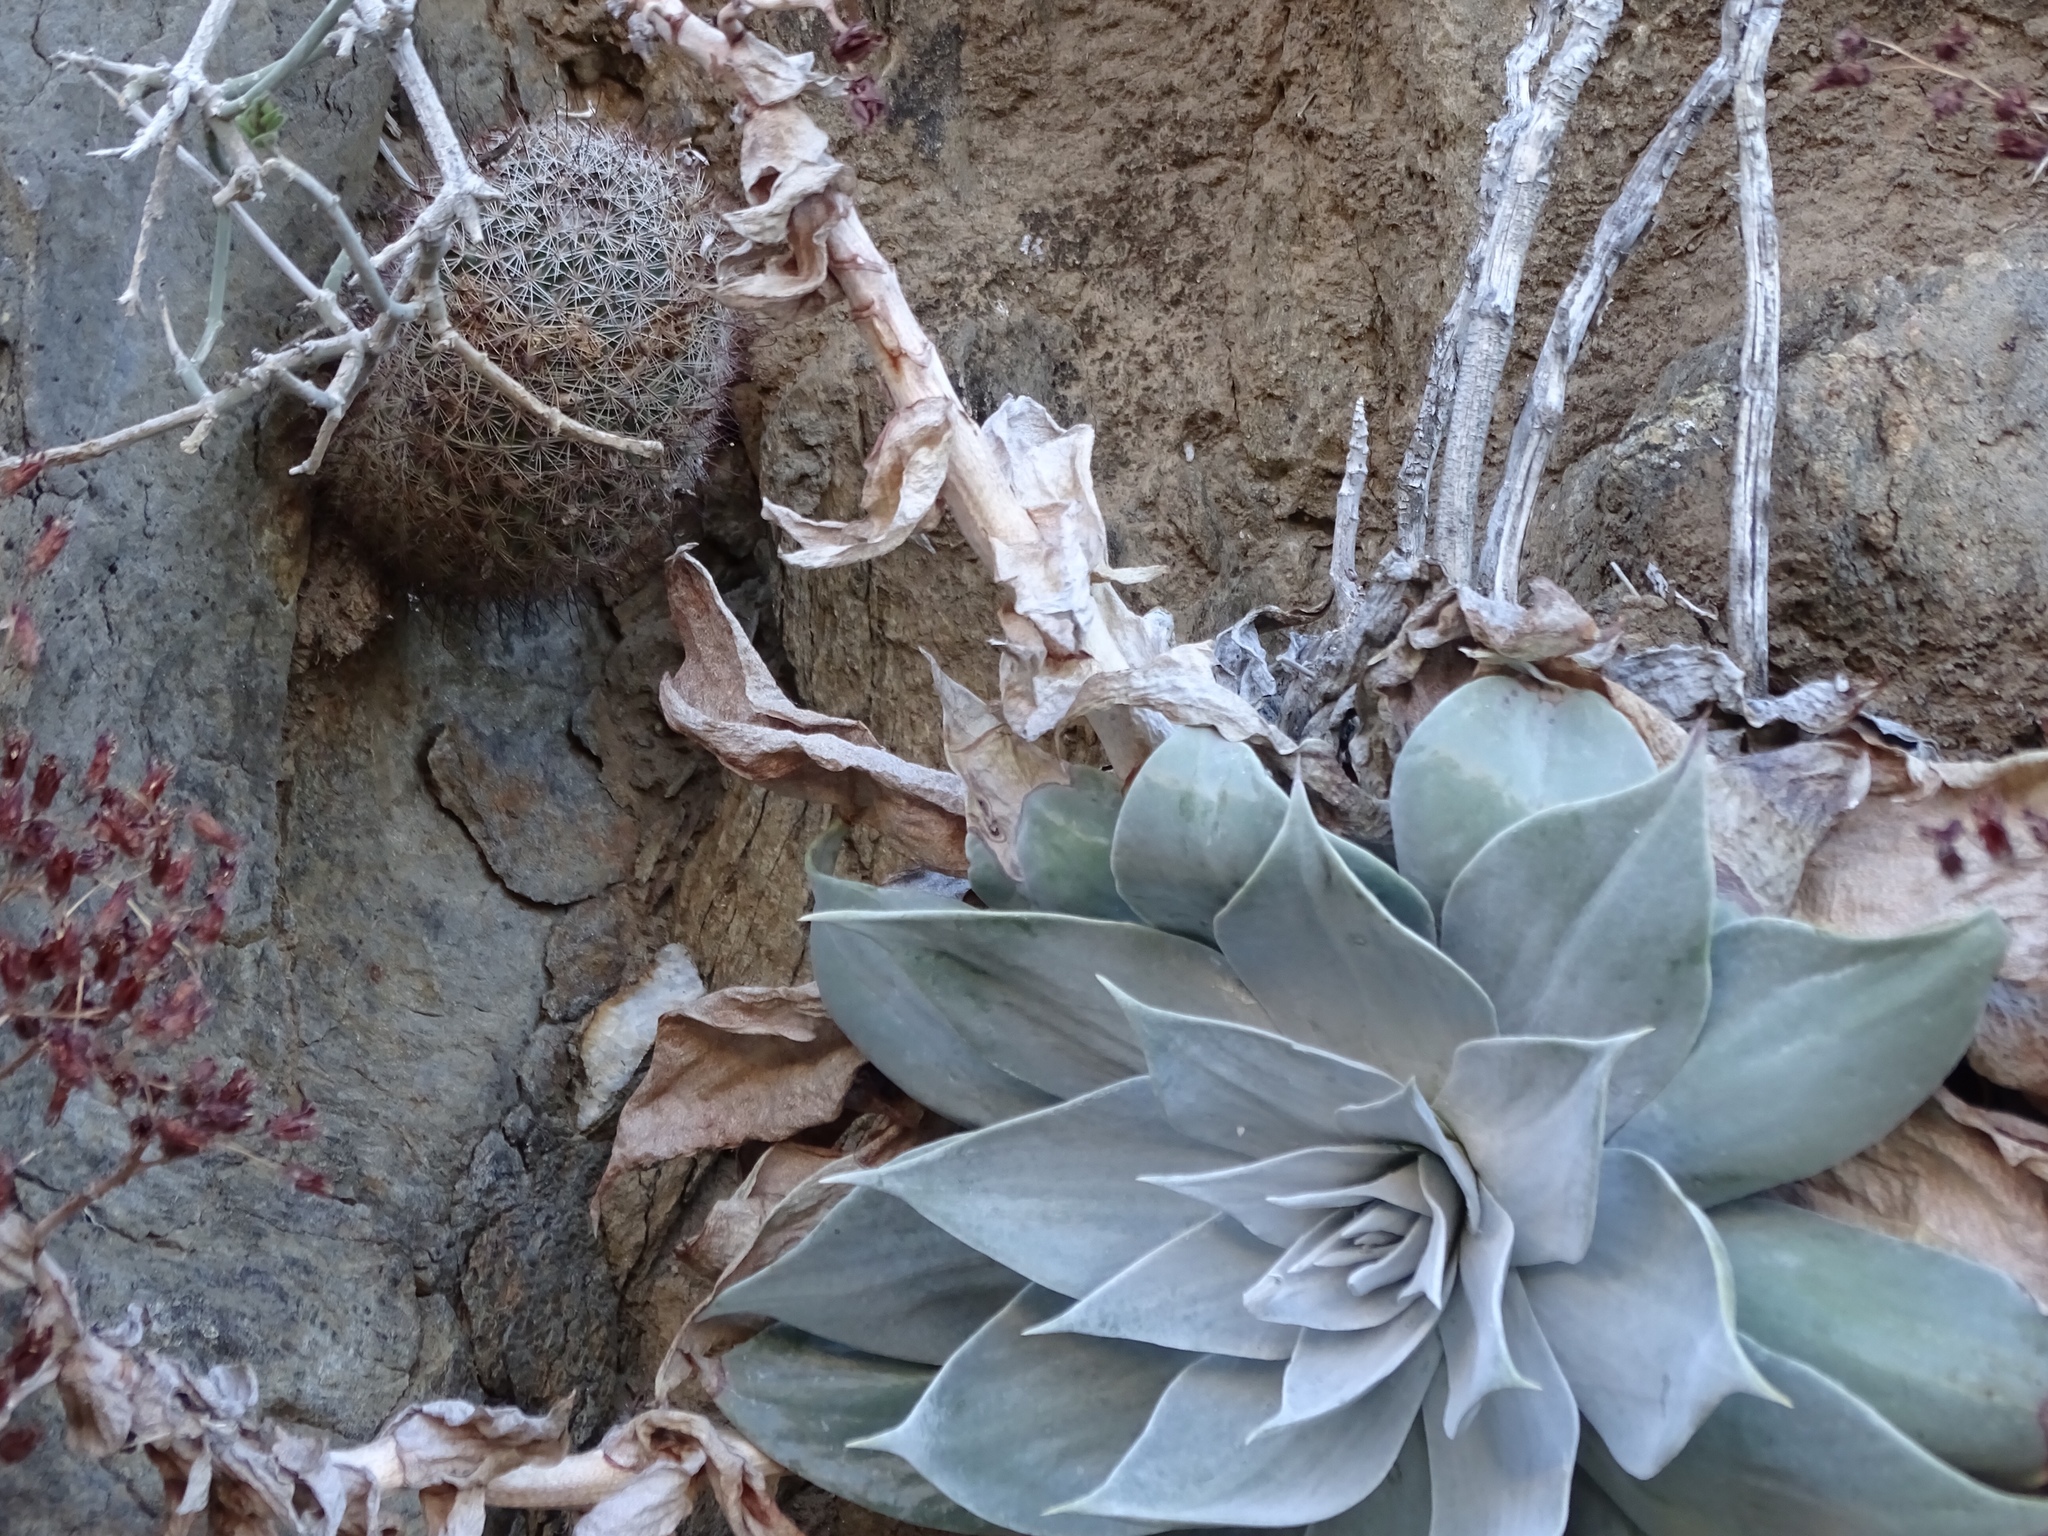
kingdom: Plantae
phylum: Tracheophyta
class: Magnoliopsida
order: Saxifragales
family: Crassulaceae
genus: Dudleya
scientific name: Dudleya arizonica
